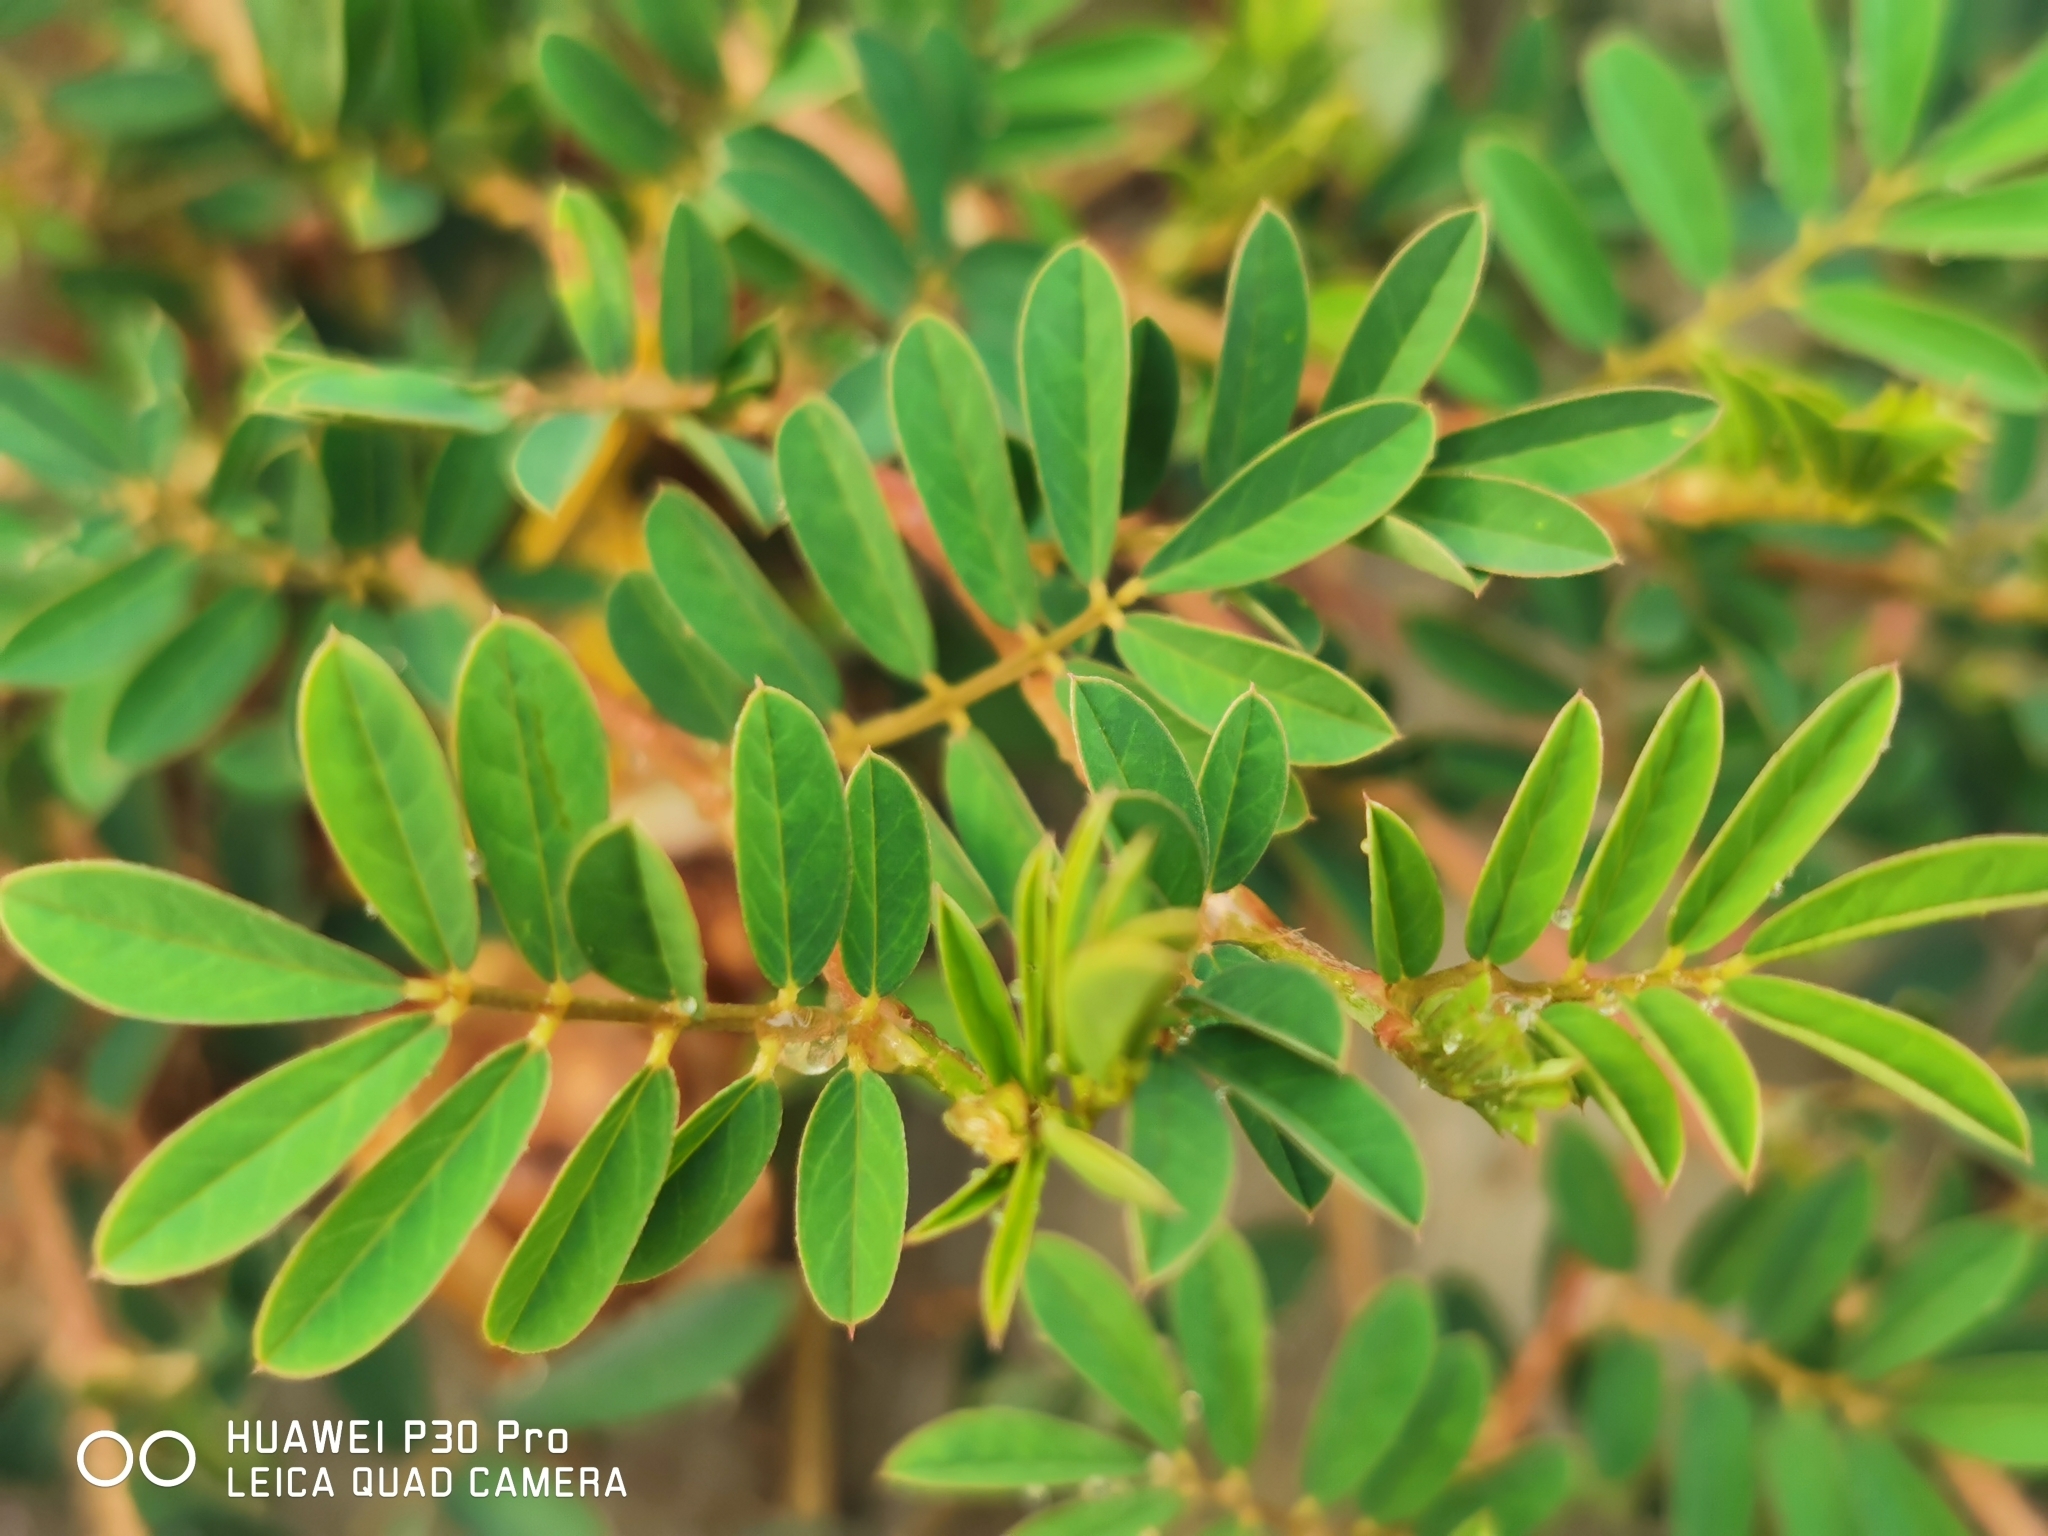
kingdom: Plantae
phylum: Tracheophyta
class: Magnoliopsida
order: Fabales
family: Fabaceae
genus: Indigofera
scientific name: Indigofera hendecaphylla
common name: Trailing indigo
